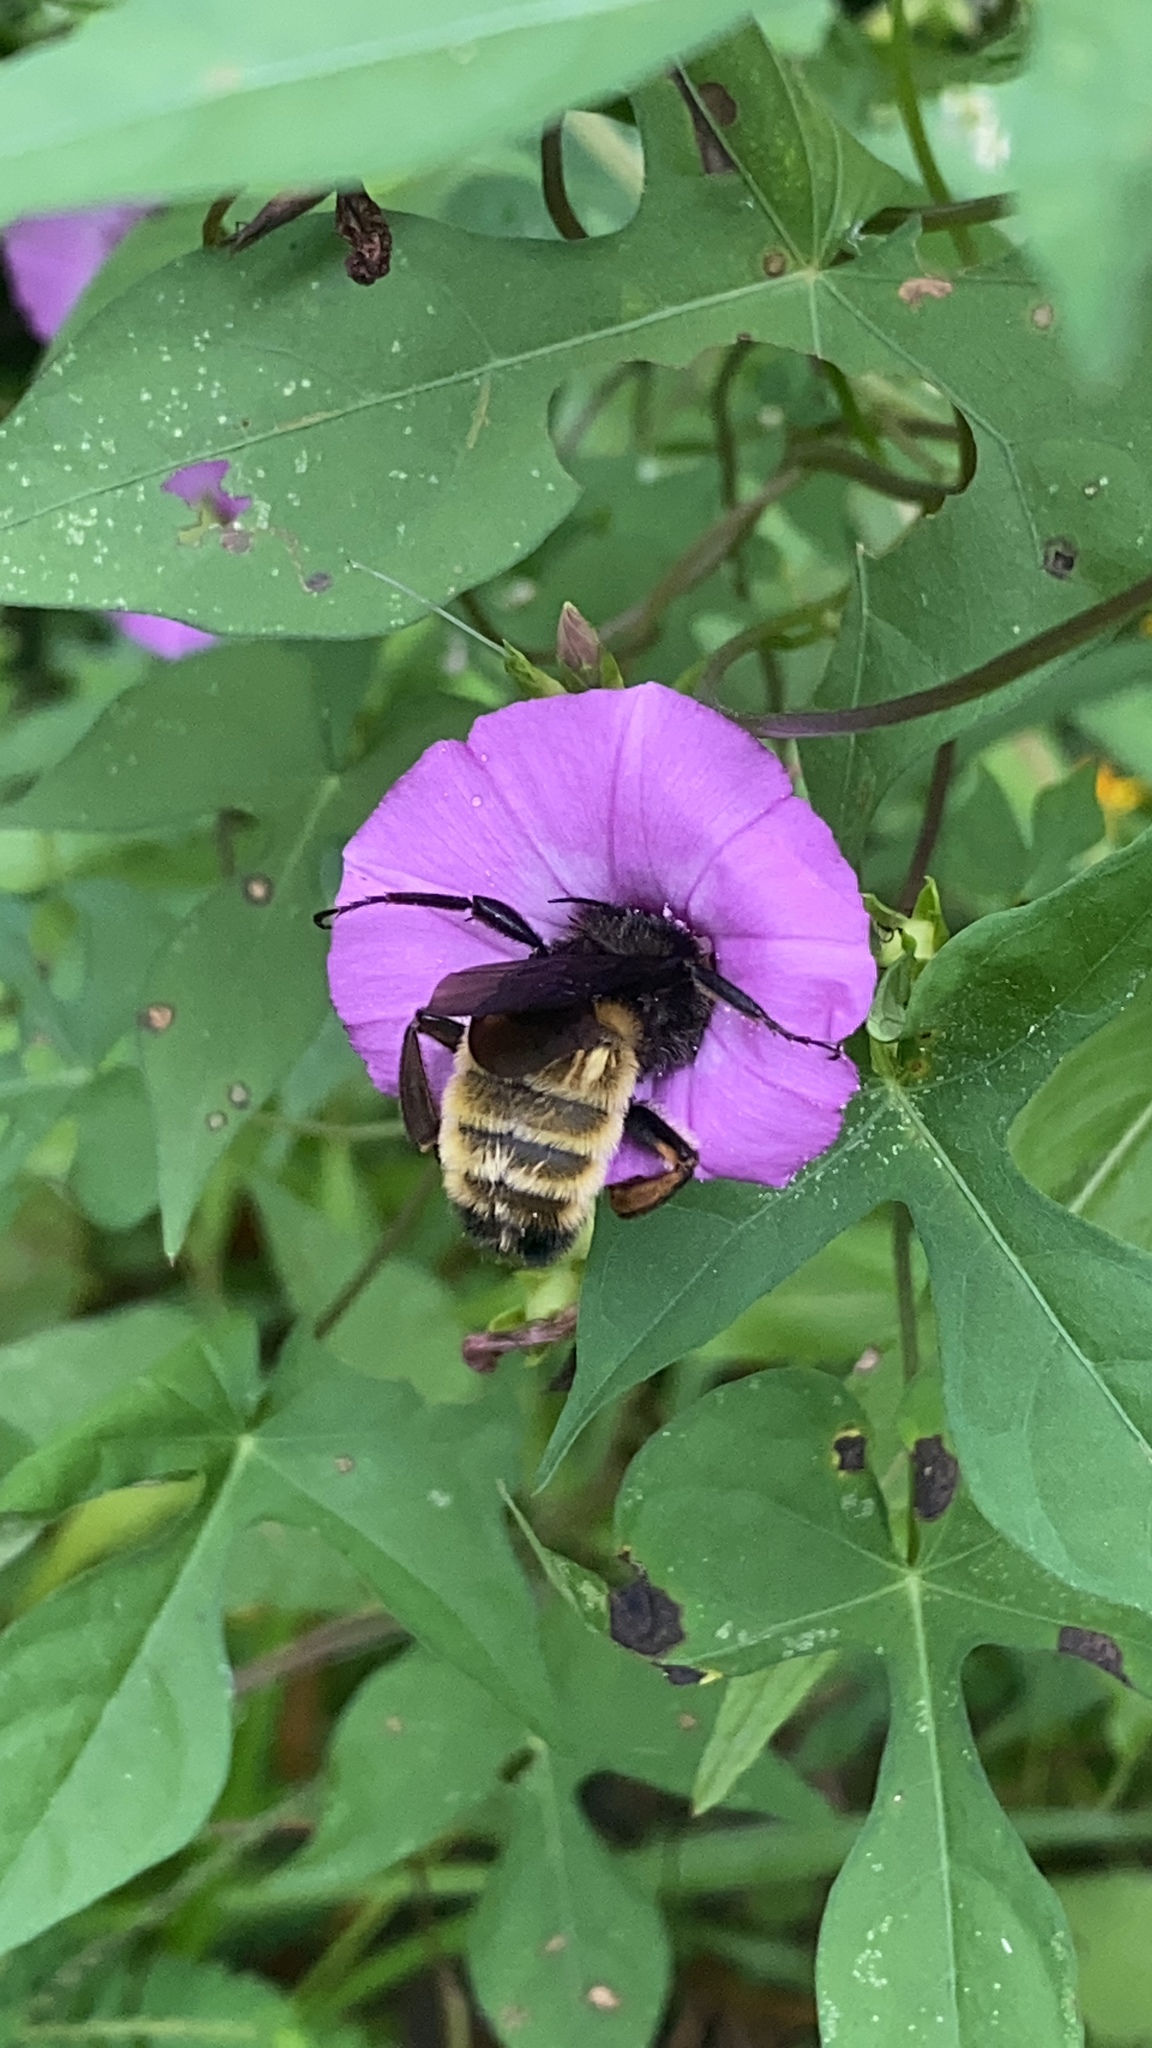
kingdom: Animalia
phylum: Arthropoda
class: Insecta
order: Hymenoptera
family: Apidae
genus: Bombus
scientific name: Bombus pensylvanicus
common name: Bumble bee
